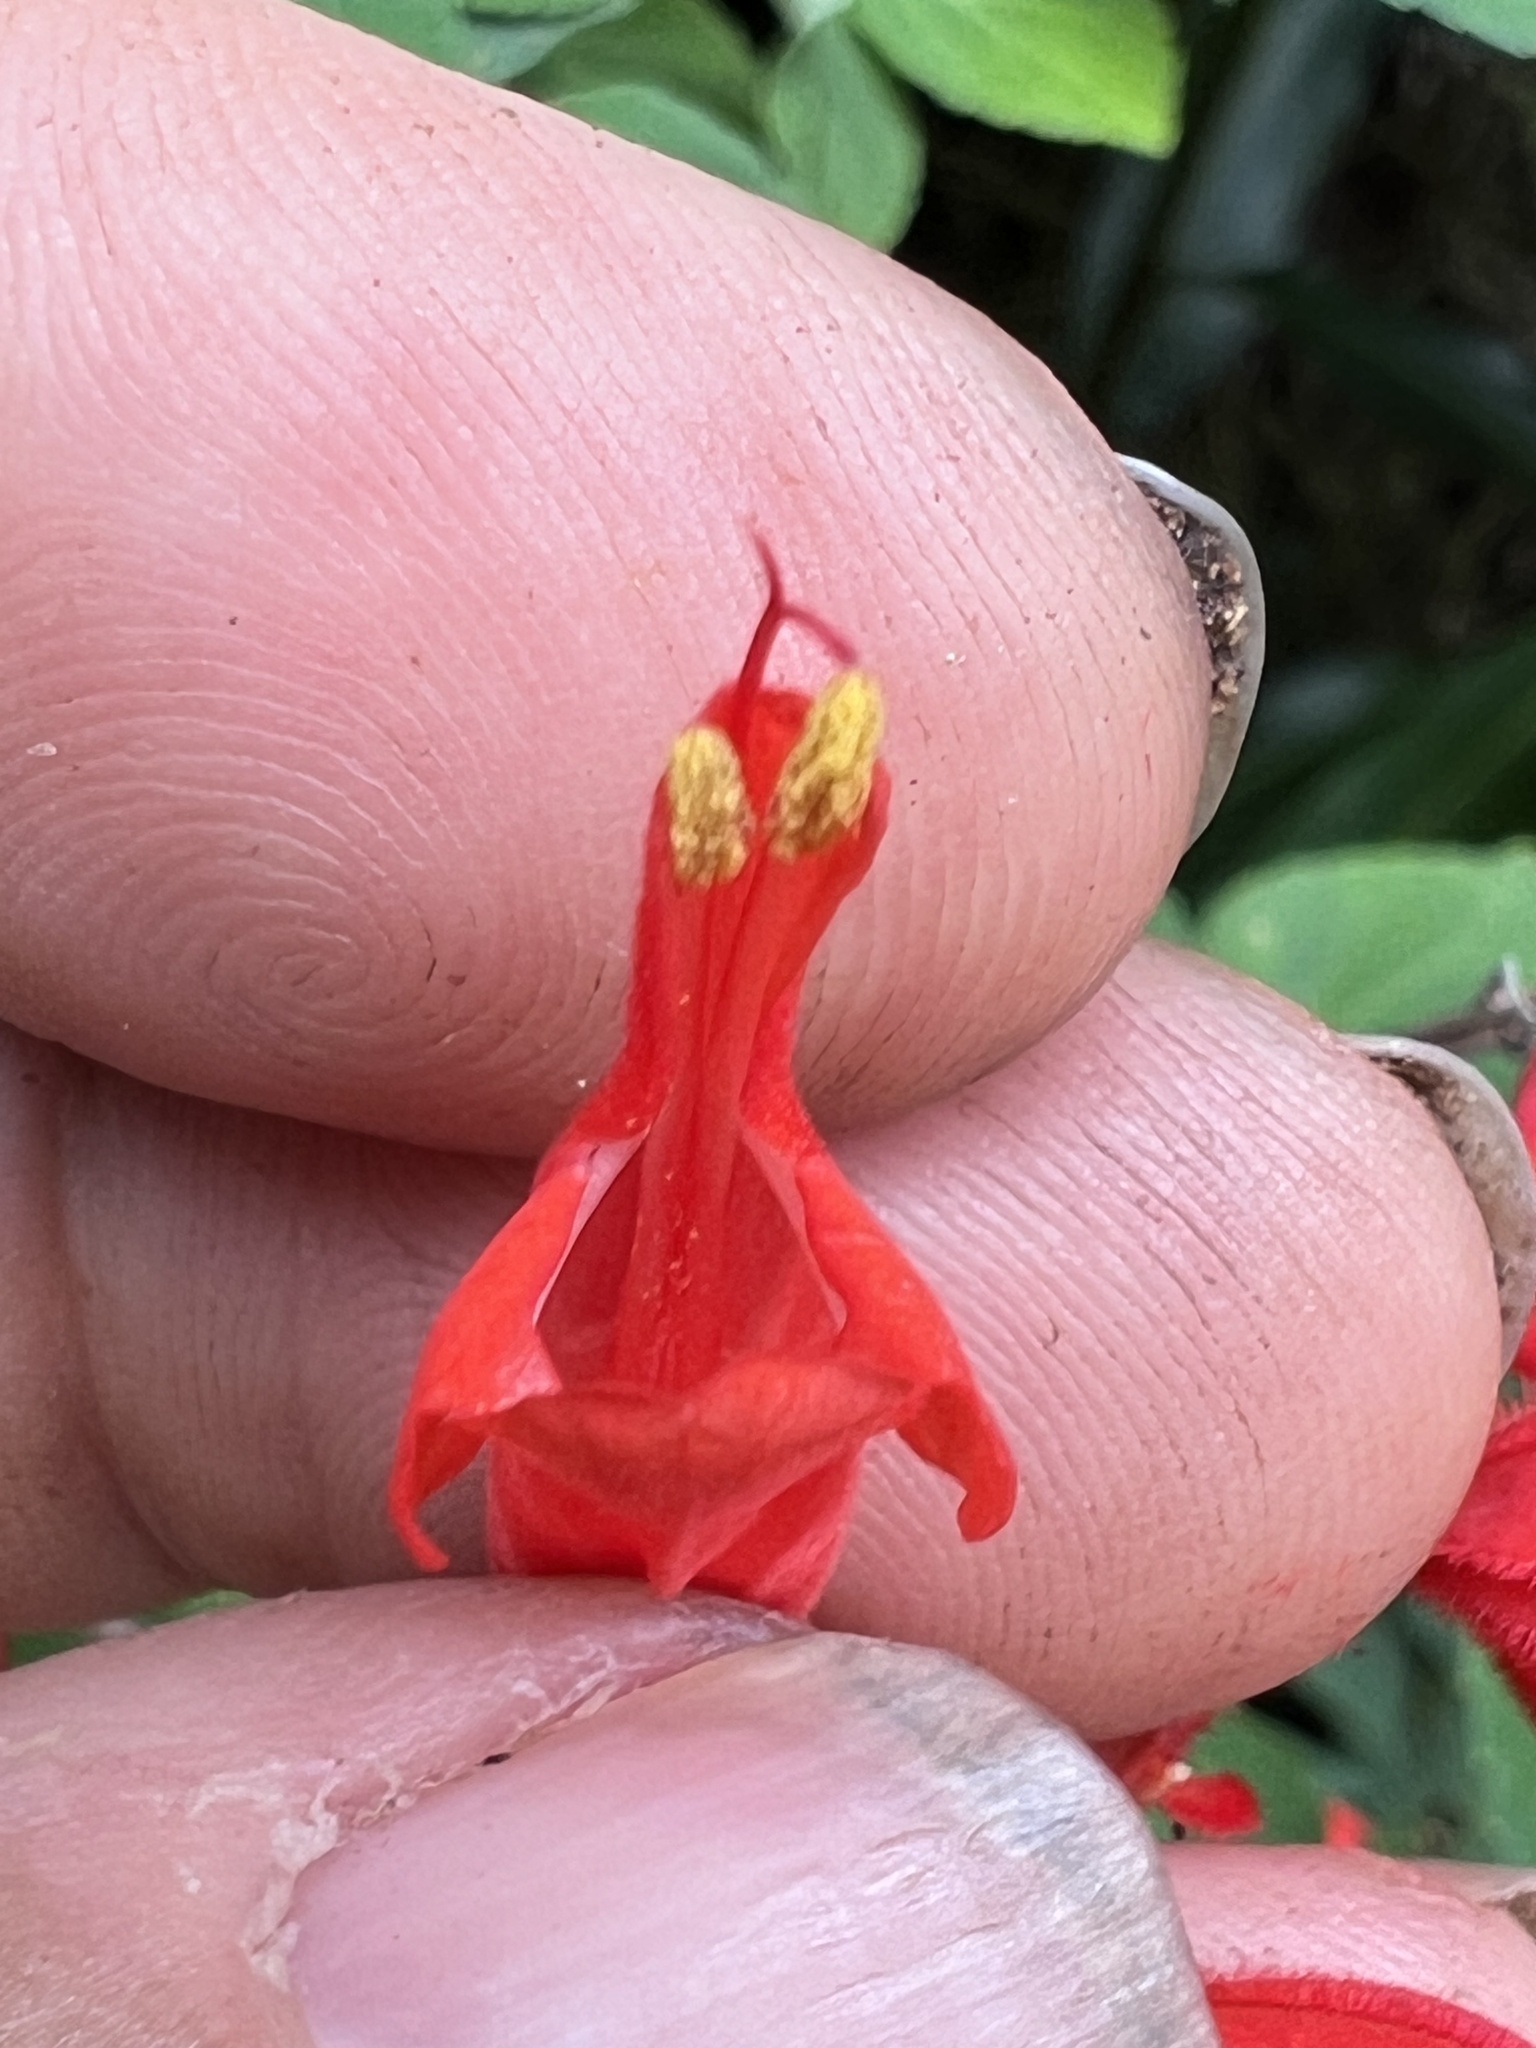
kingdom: Plantae
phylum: Tracheophyta
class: Magnoliopsida
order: Lamiales
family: Lamiaceae
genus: Salvia
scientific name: Salvia splendens
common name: Scarlet sage
